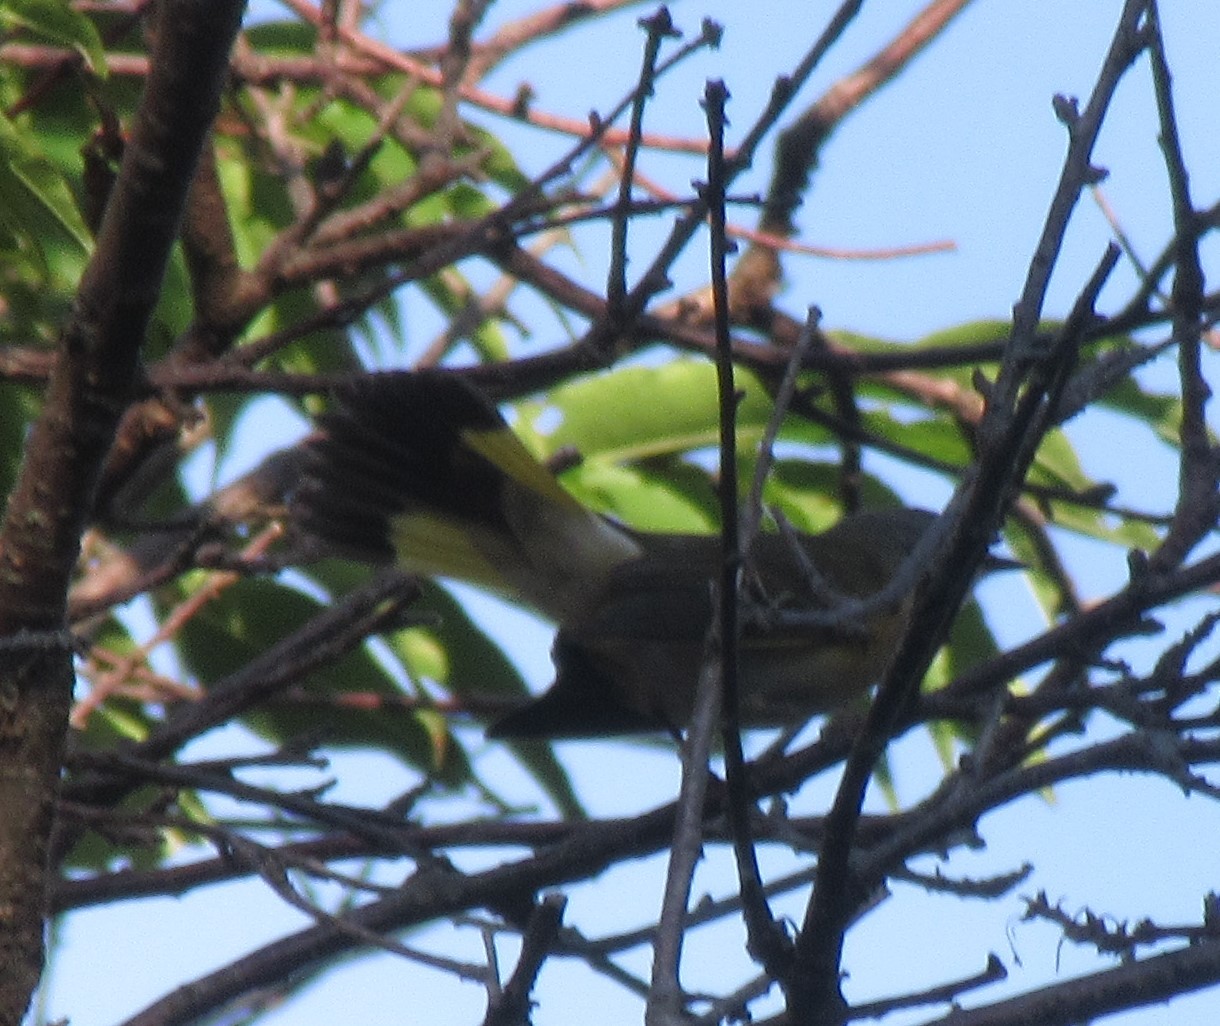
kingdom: Animalia
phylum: Chordata
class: Aves
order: Passeriformes
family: Parulidae
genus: Setophaga
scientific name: Setophaga ruticilla
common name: American redstart
